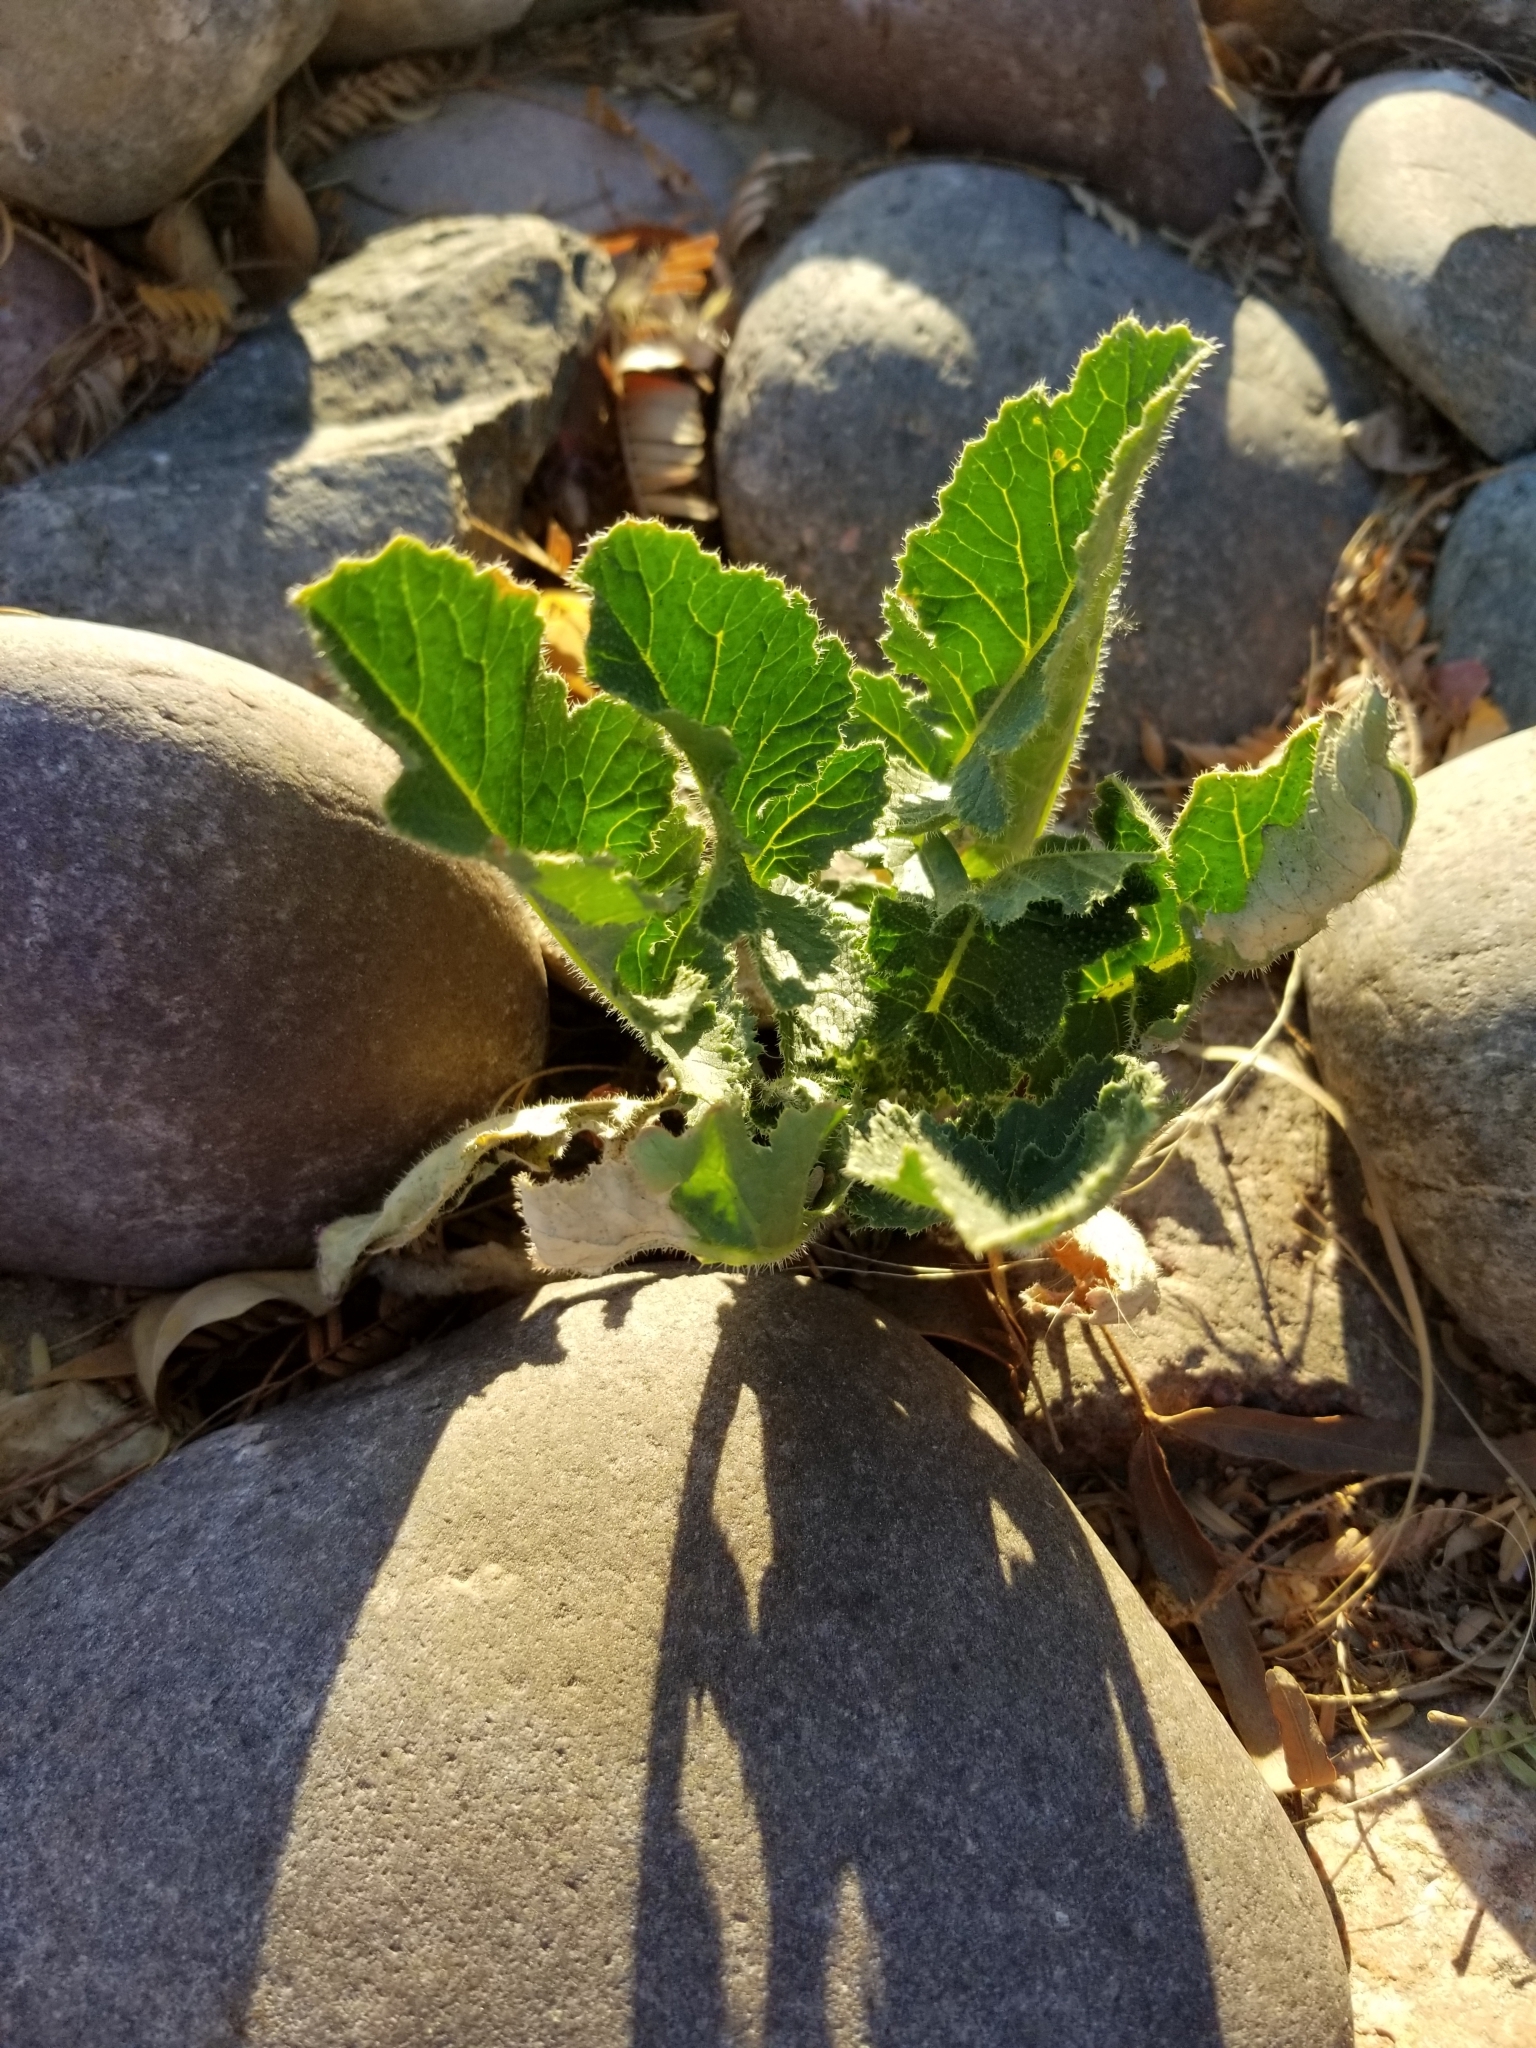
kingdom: Plantae
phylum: Tracheophyta
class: Magnoliopsida
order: Brassicales
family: Brassicaceae
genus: Brassica
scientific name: Brassica tournefortii
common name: Pale cabbage
